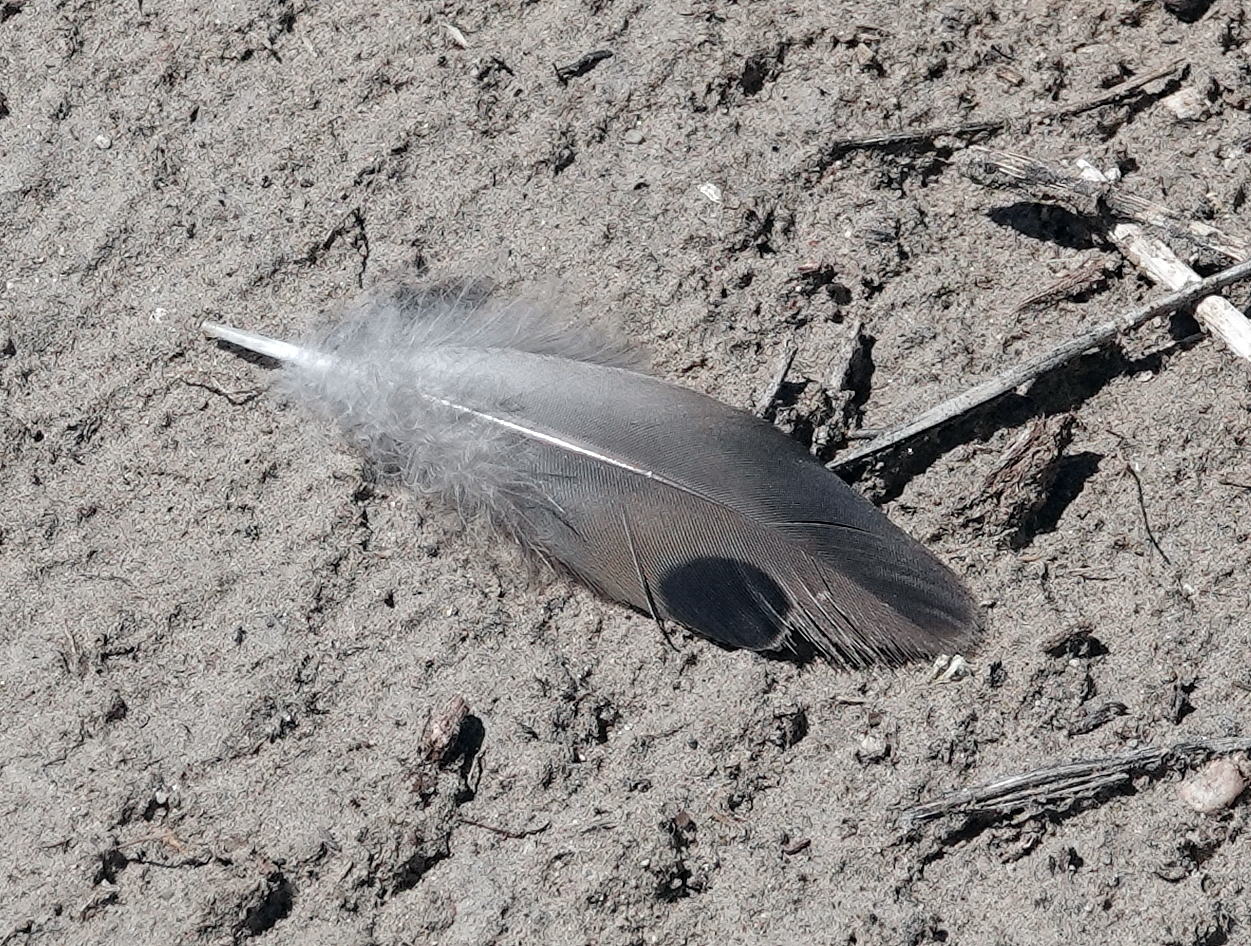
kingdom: Animalia
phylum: Chordata
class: Aves
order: Columbiformes
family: Columbidae
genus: Zenaida
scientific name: Zenaida macroura
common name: Mourning dove
